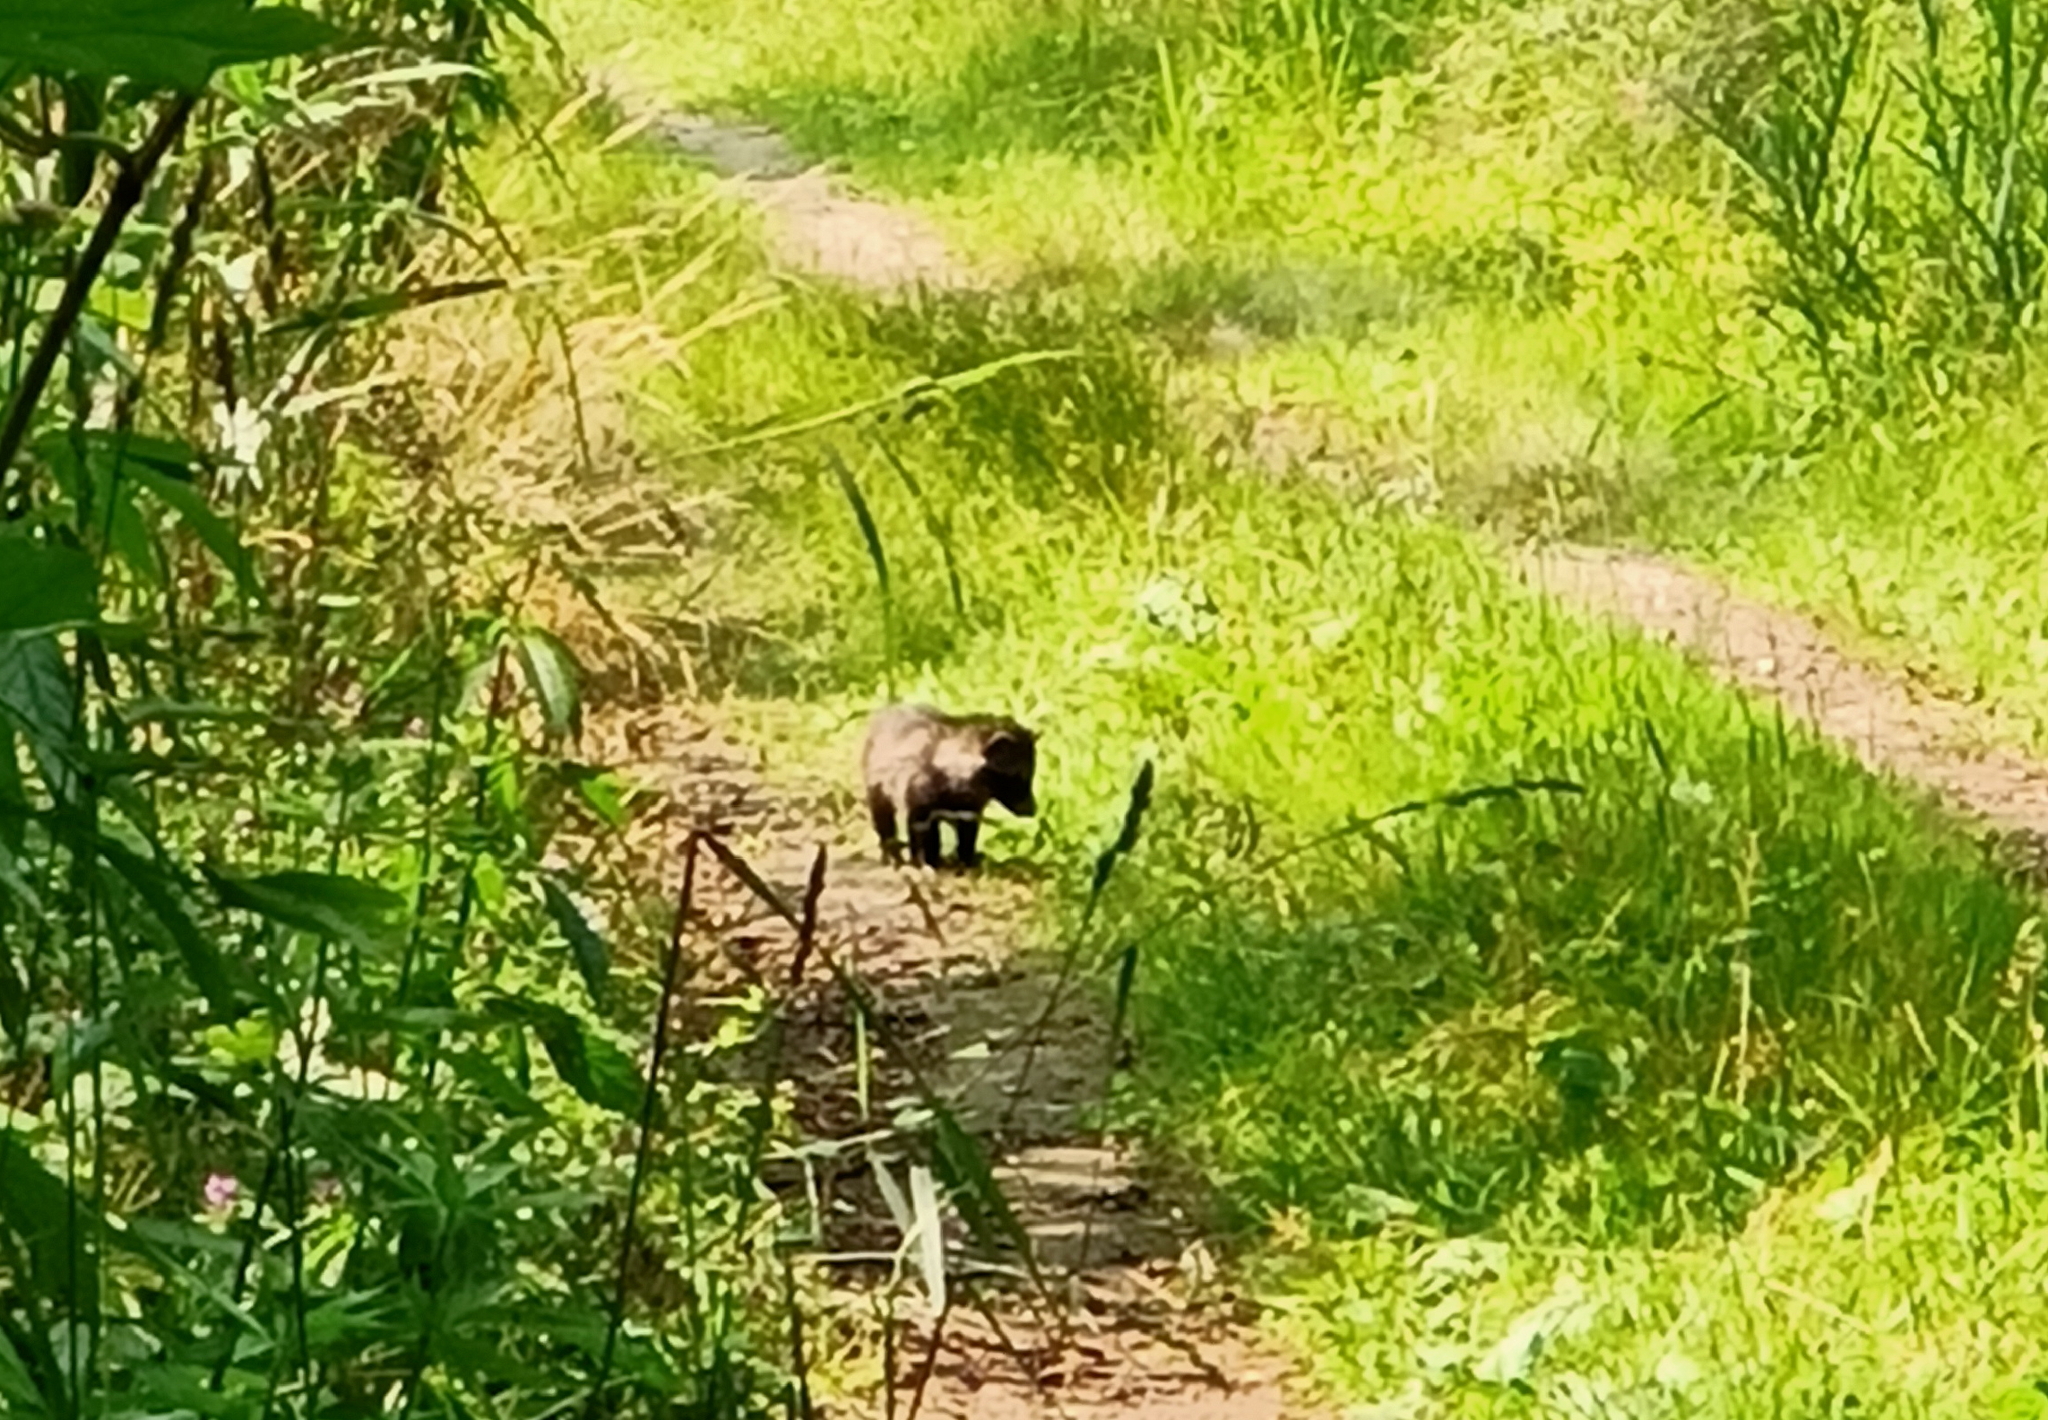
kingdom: Animalia
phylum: Chordata
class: Mammalia
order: Carnivora
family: Canidae
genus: Nyctereutes
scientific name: Nyctereutes procyonoides
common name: Raccoon dog
